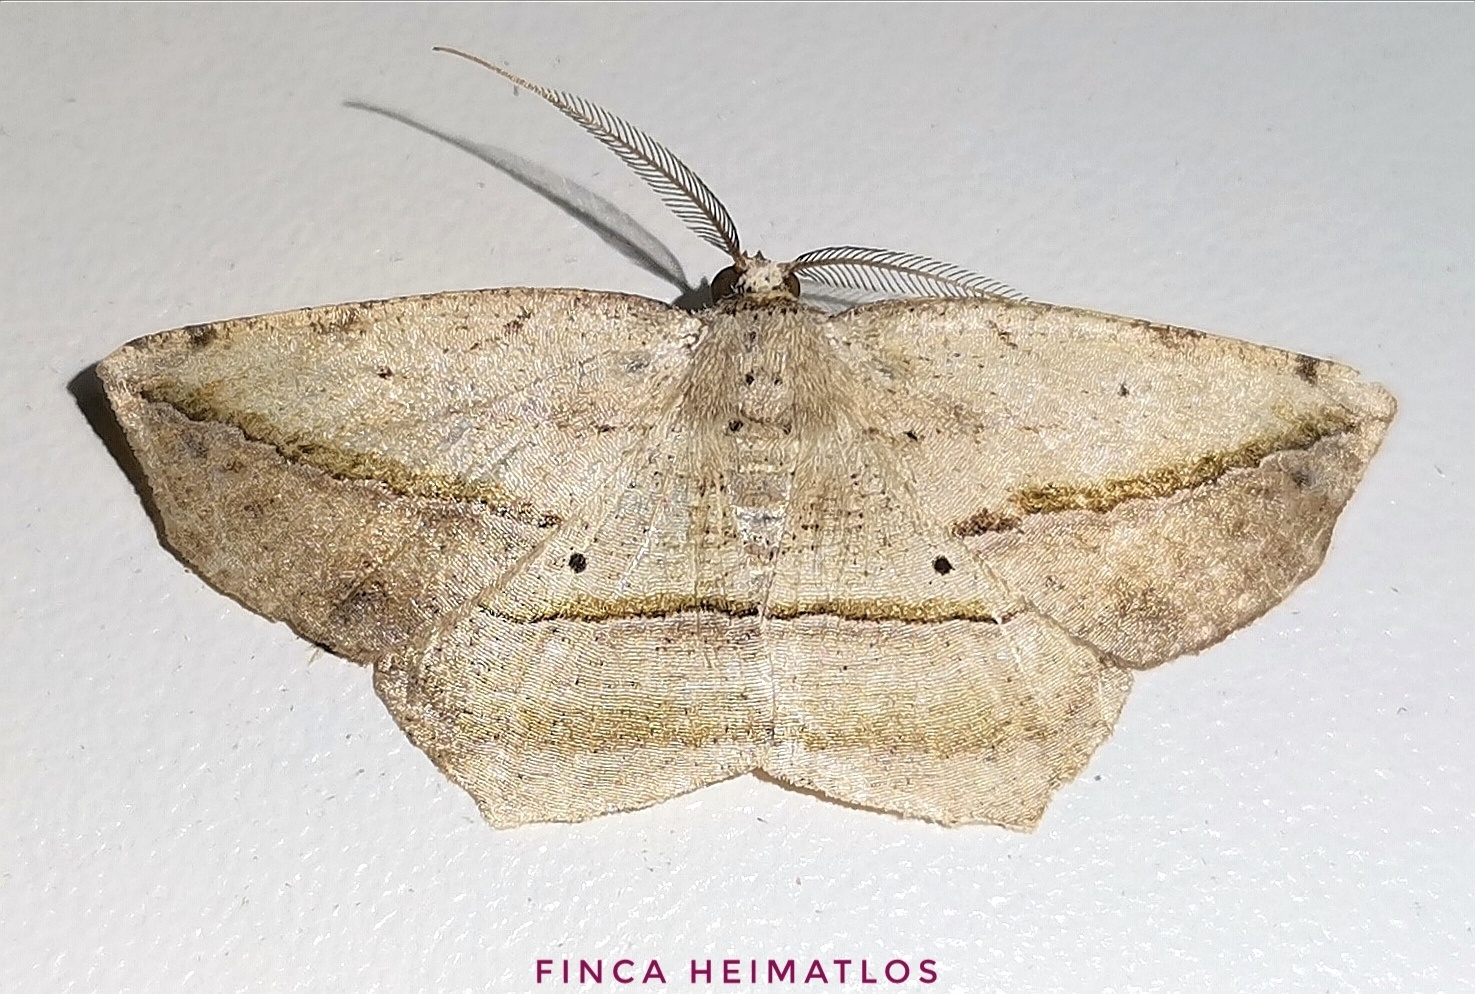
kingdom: Animalia
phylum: Arthropoda
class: Insecta
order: Lepidoptera
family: Geometridae
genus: Eusarca
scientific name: Eusarca flexilis
